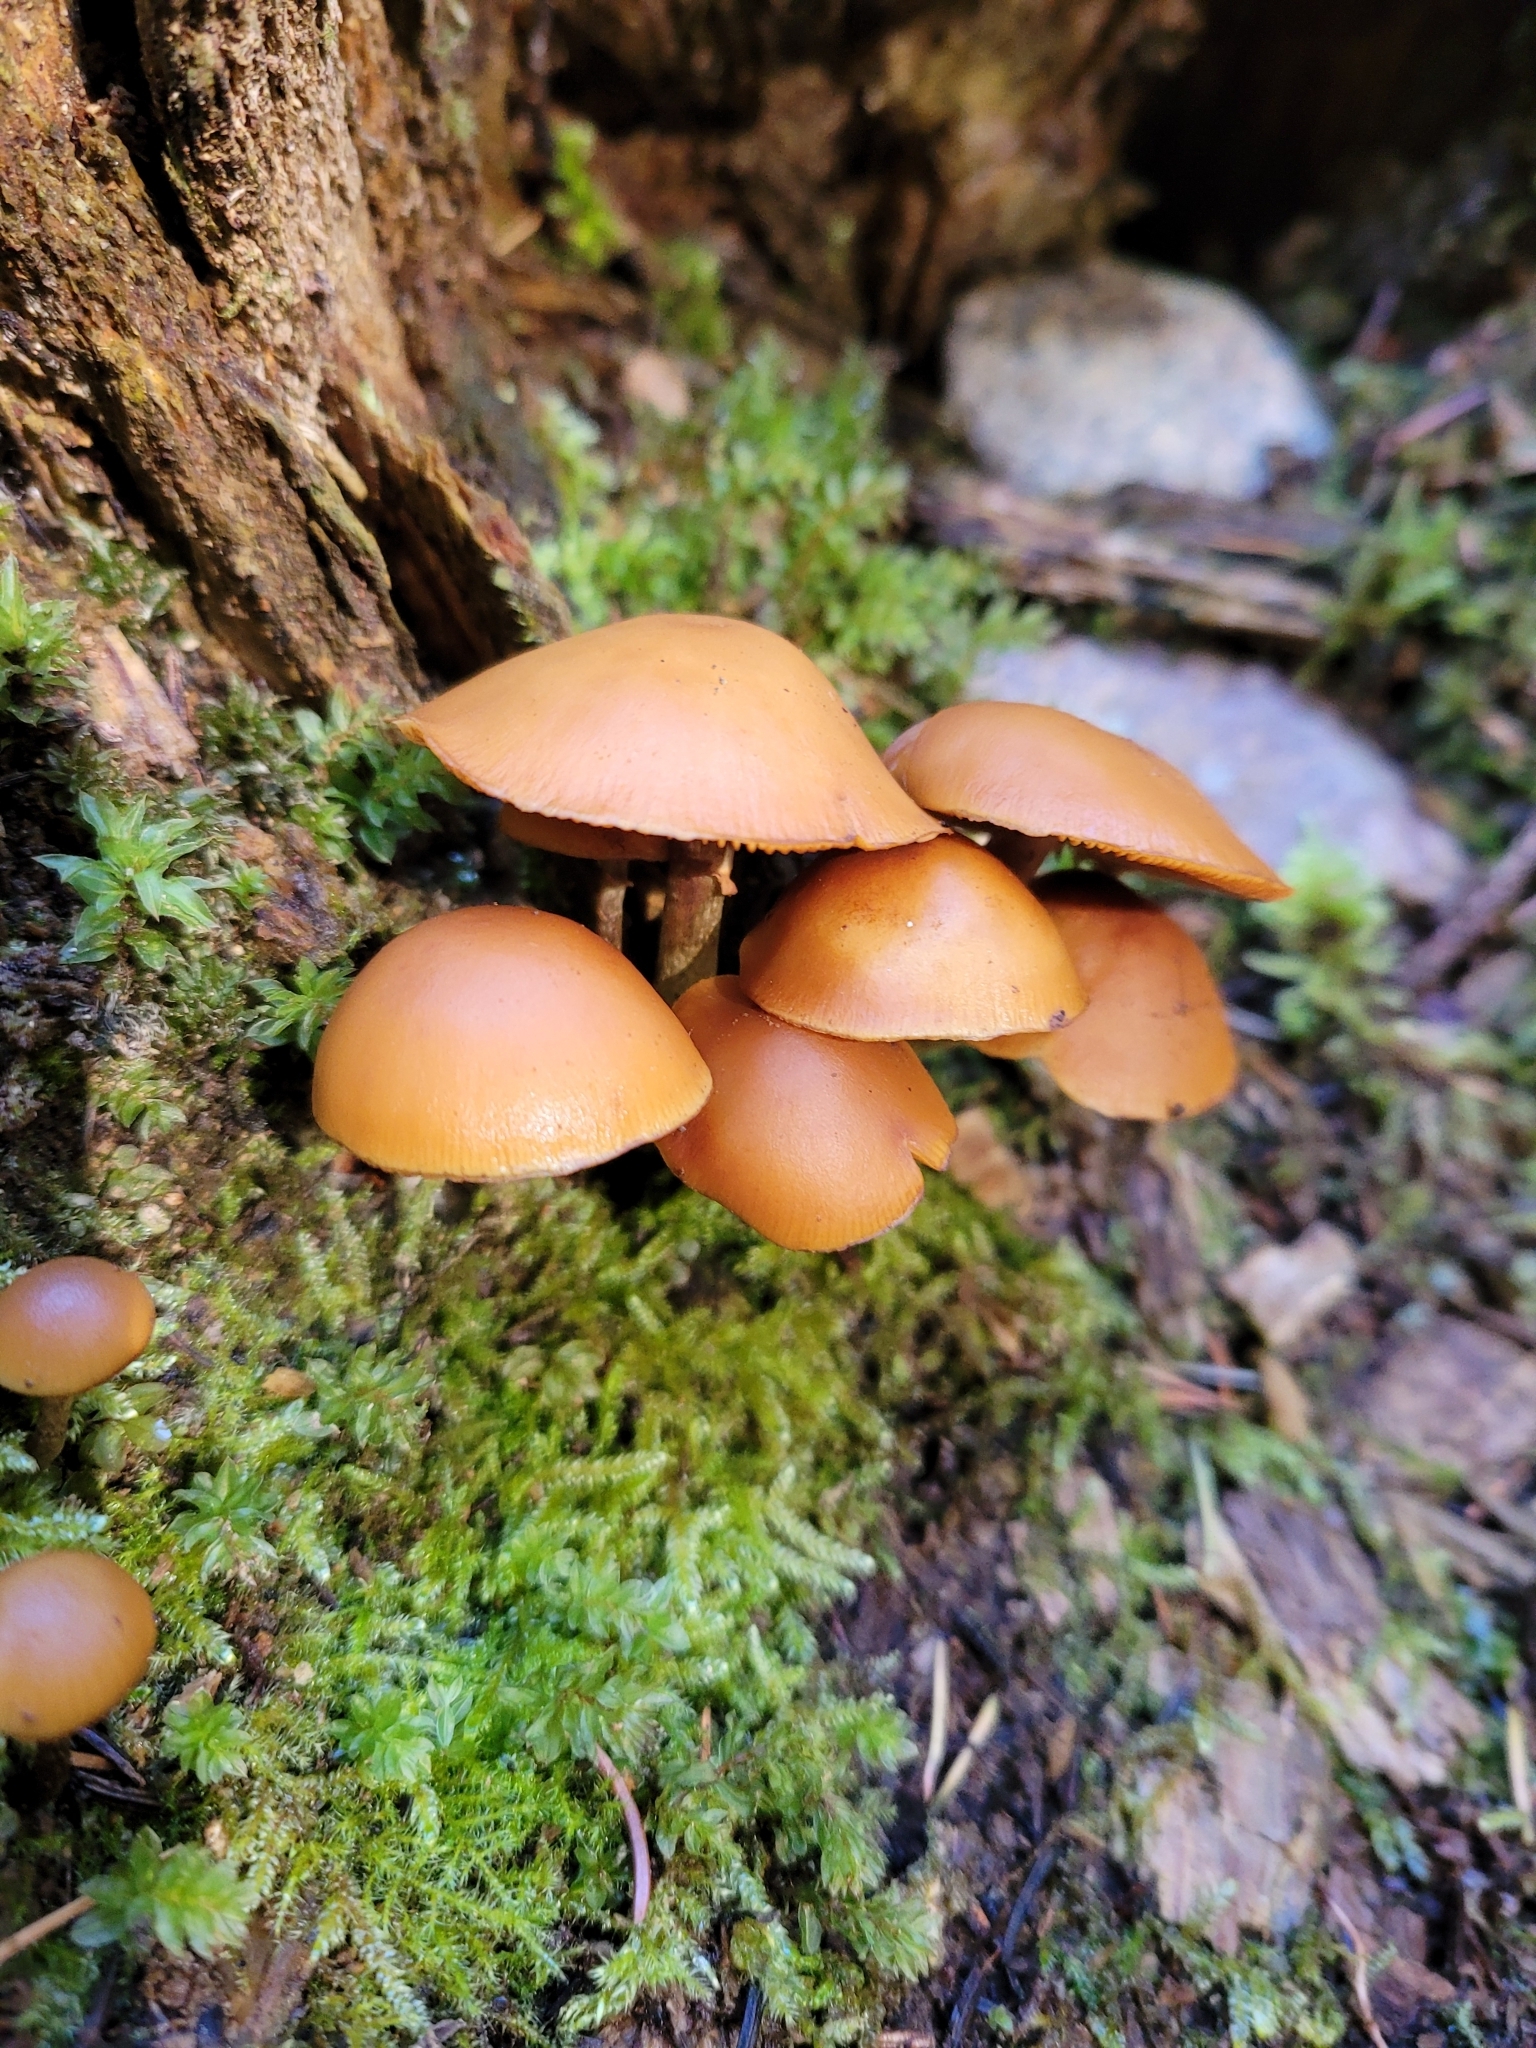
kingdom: Fungi
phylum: Basidiomycota
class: Agaricomycetes
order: Agaricales
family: Hymenogastraceae
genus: Galerina
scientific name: Galerina marginata
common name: Funeral bell
